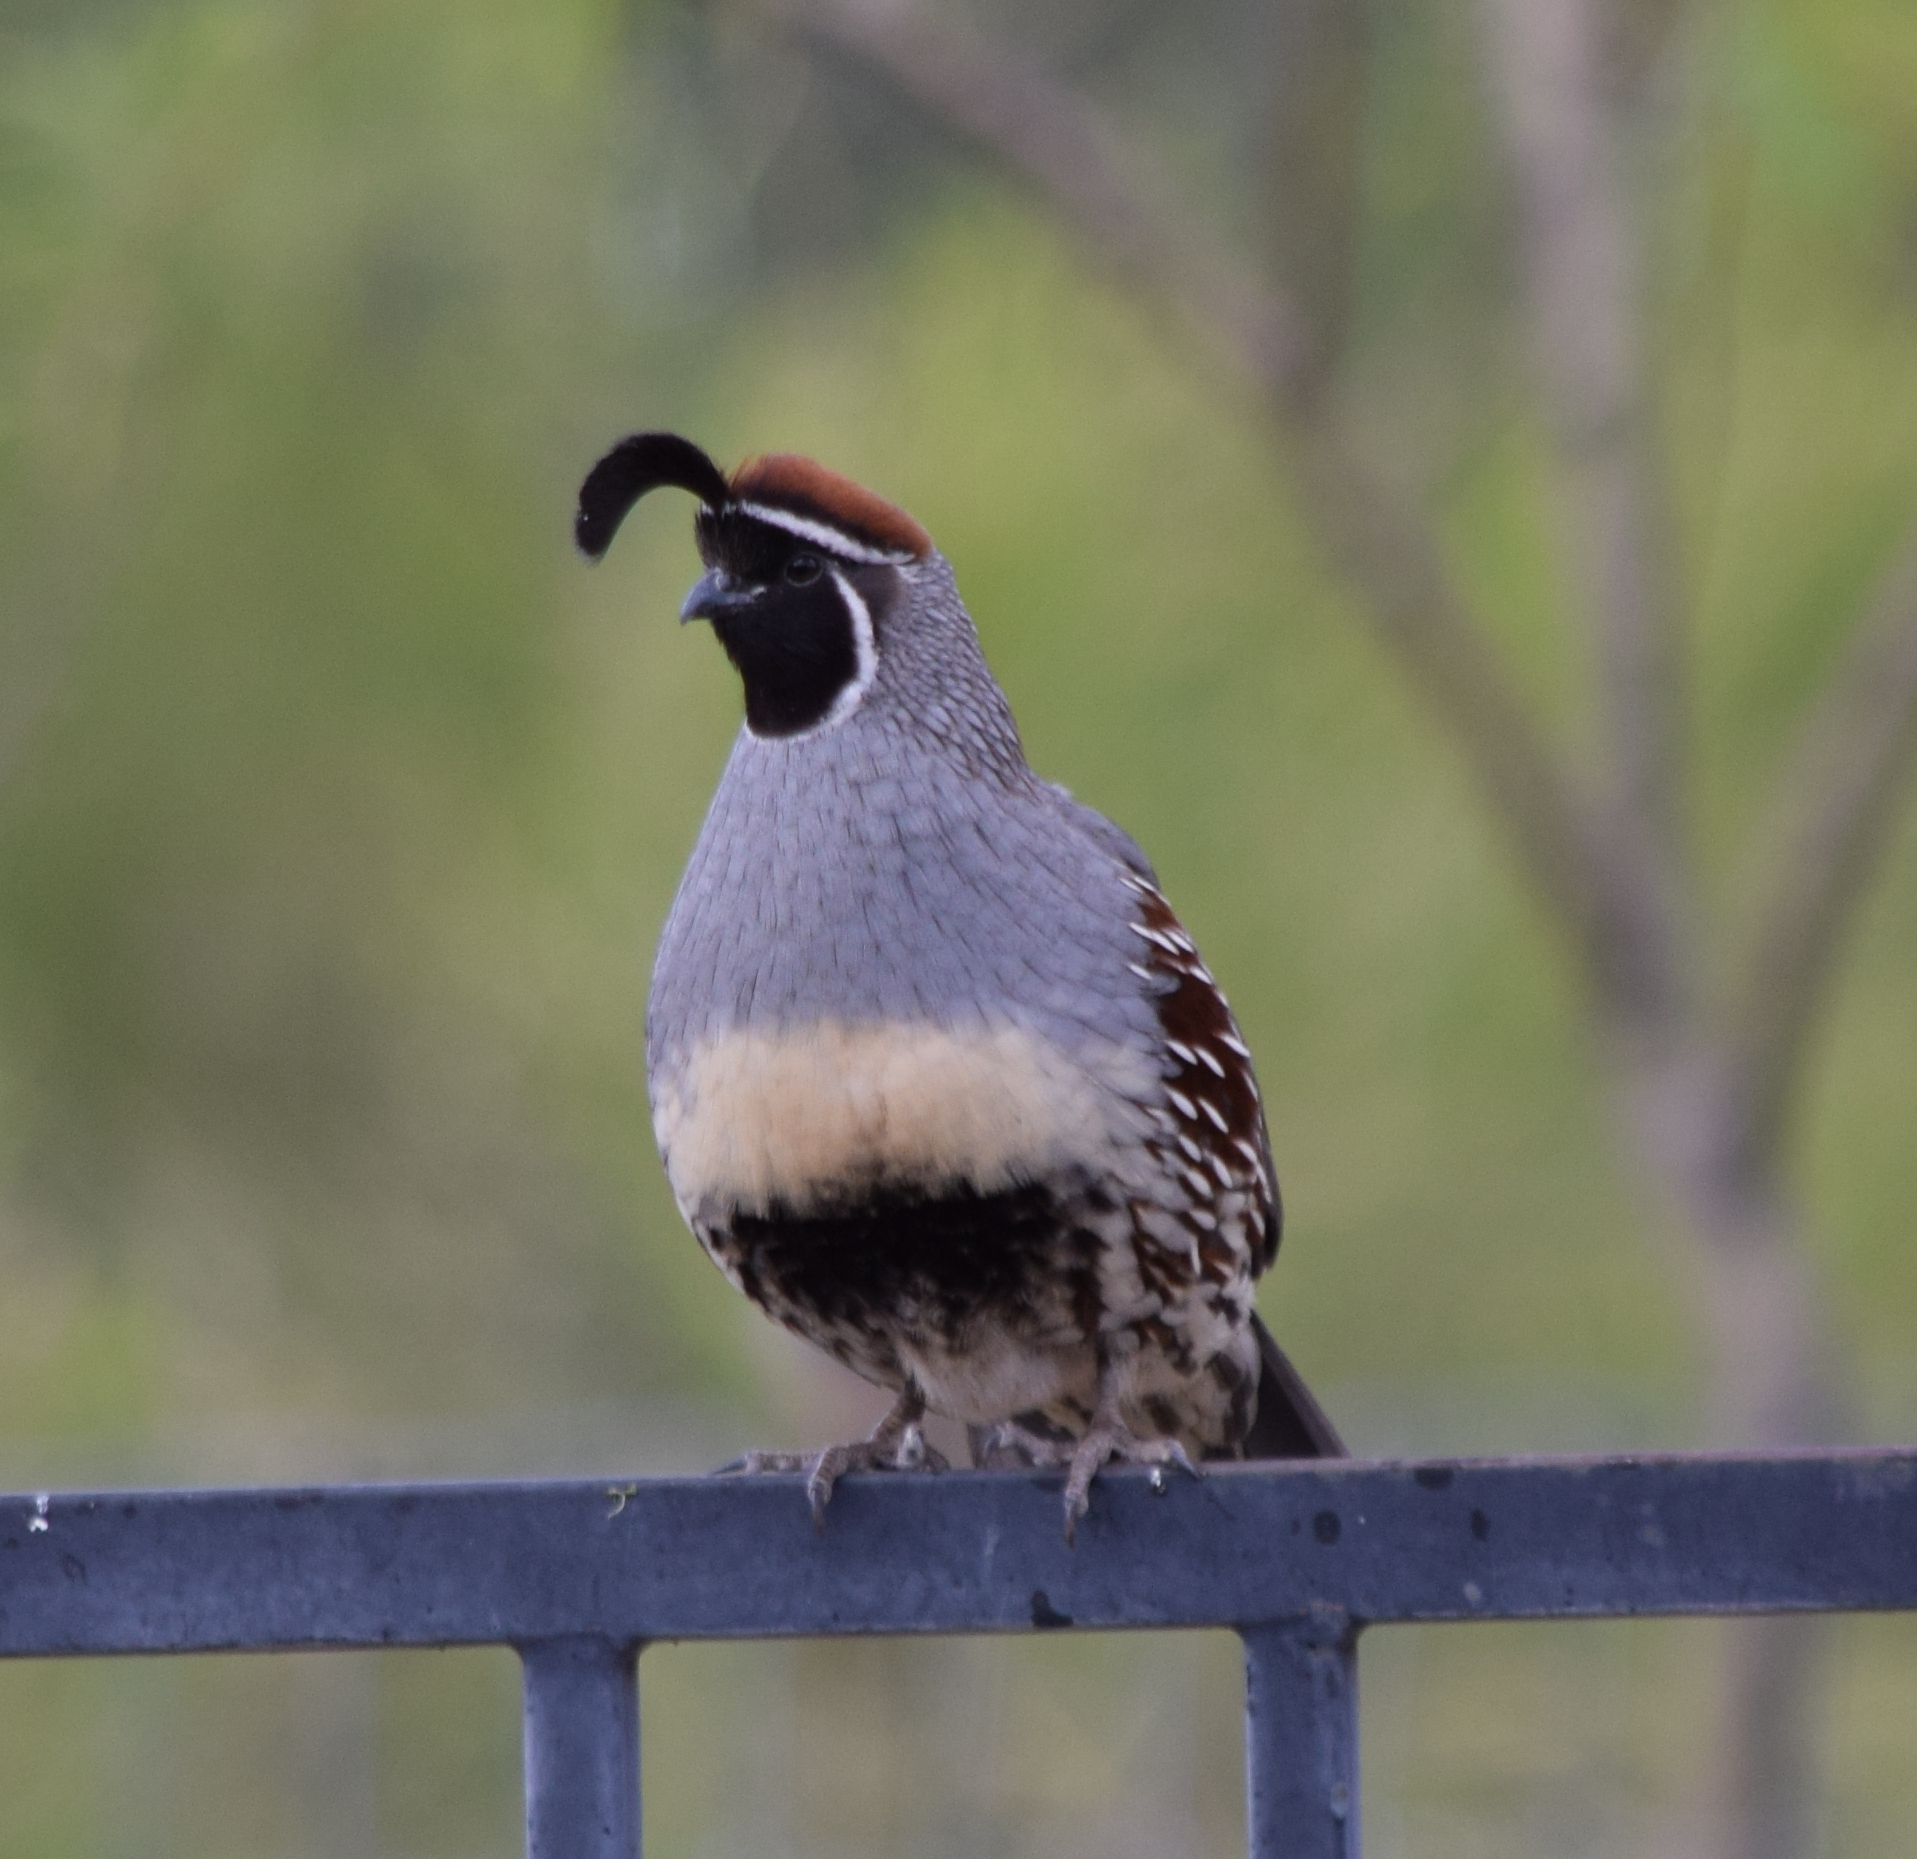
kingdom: Animalia
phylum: Chordata
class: Aves
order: Galliformes
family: Odontophoridae
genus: Callipepla
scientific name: Callipepla gambelii
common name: Gambel's quail
